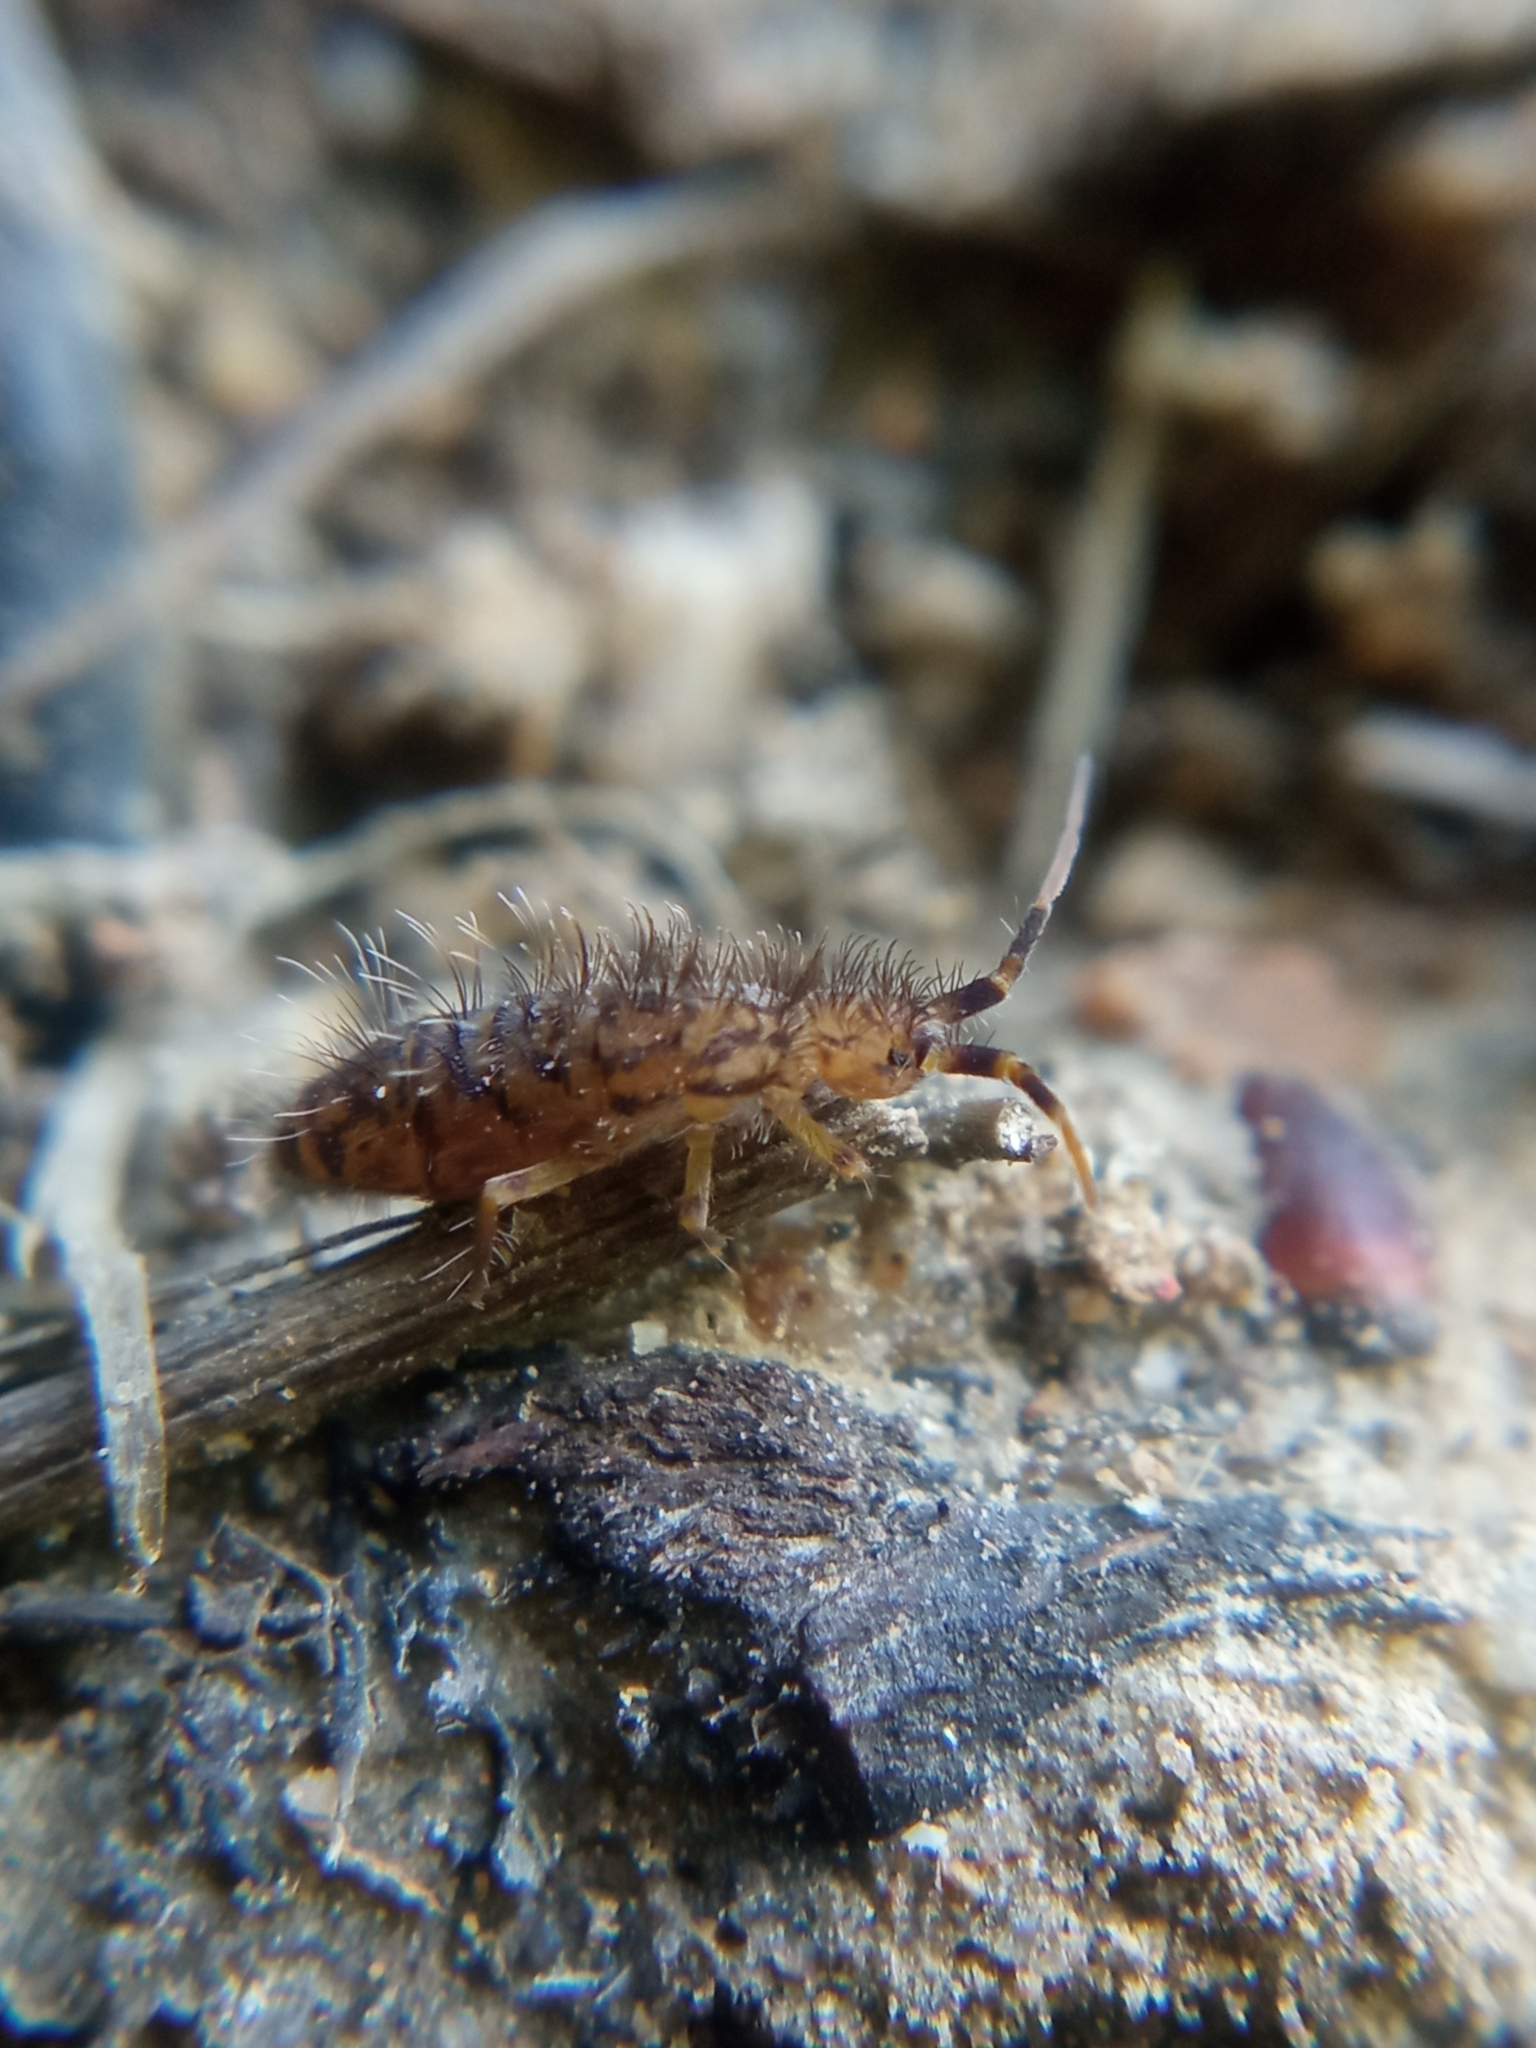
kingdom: Animalia
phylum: Arthropoda
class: Collembola
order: Entomobryomorpha
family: Orchesellidae
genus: Orchesella
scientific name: Orchesella villosa
